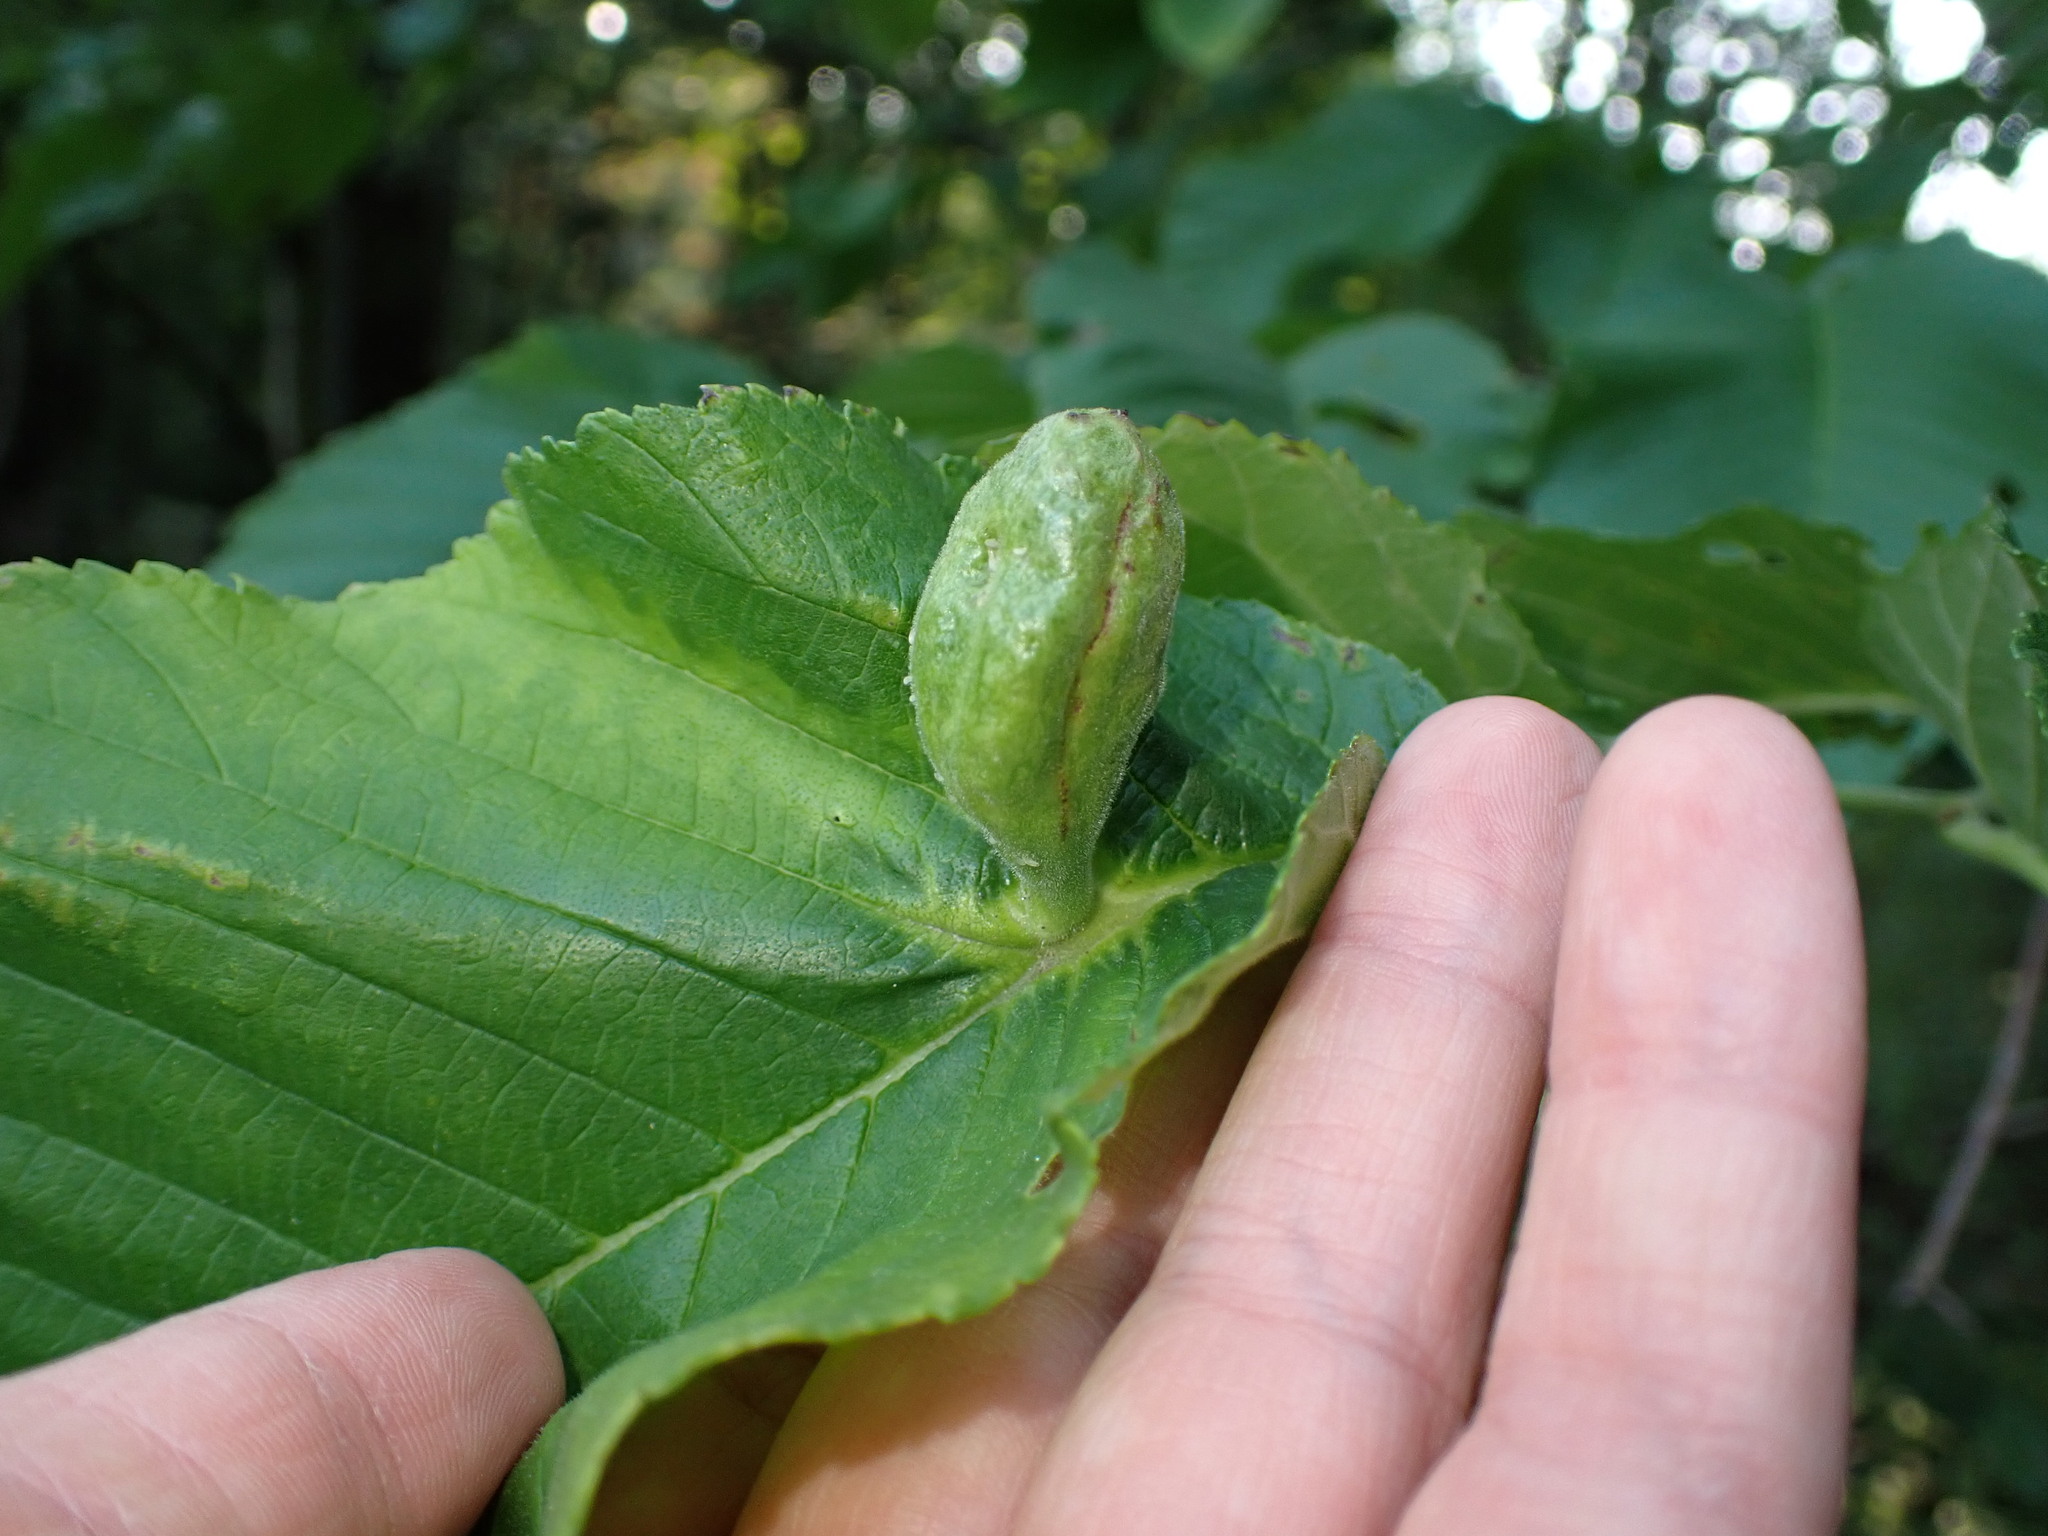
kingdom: Animalia
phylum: Arthropoda
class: Insecta
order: Hemiptera
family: Aphididae
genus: Kaltenbachiella
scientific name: Kaltenbachiella ulmifusa
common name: Elm pouchgall aphid
